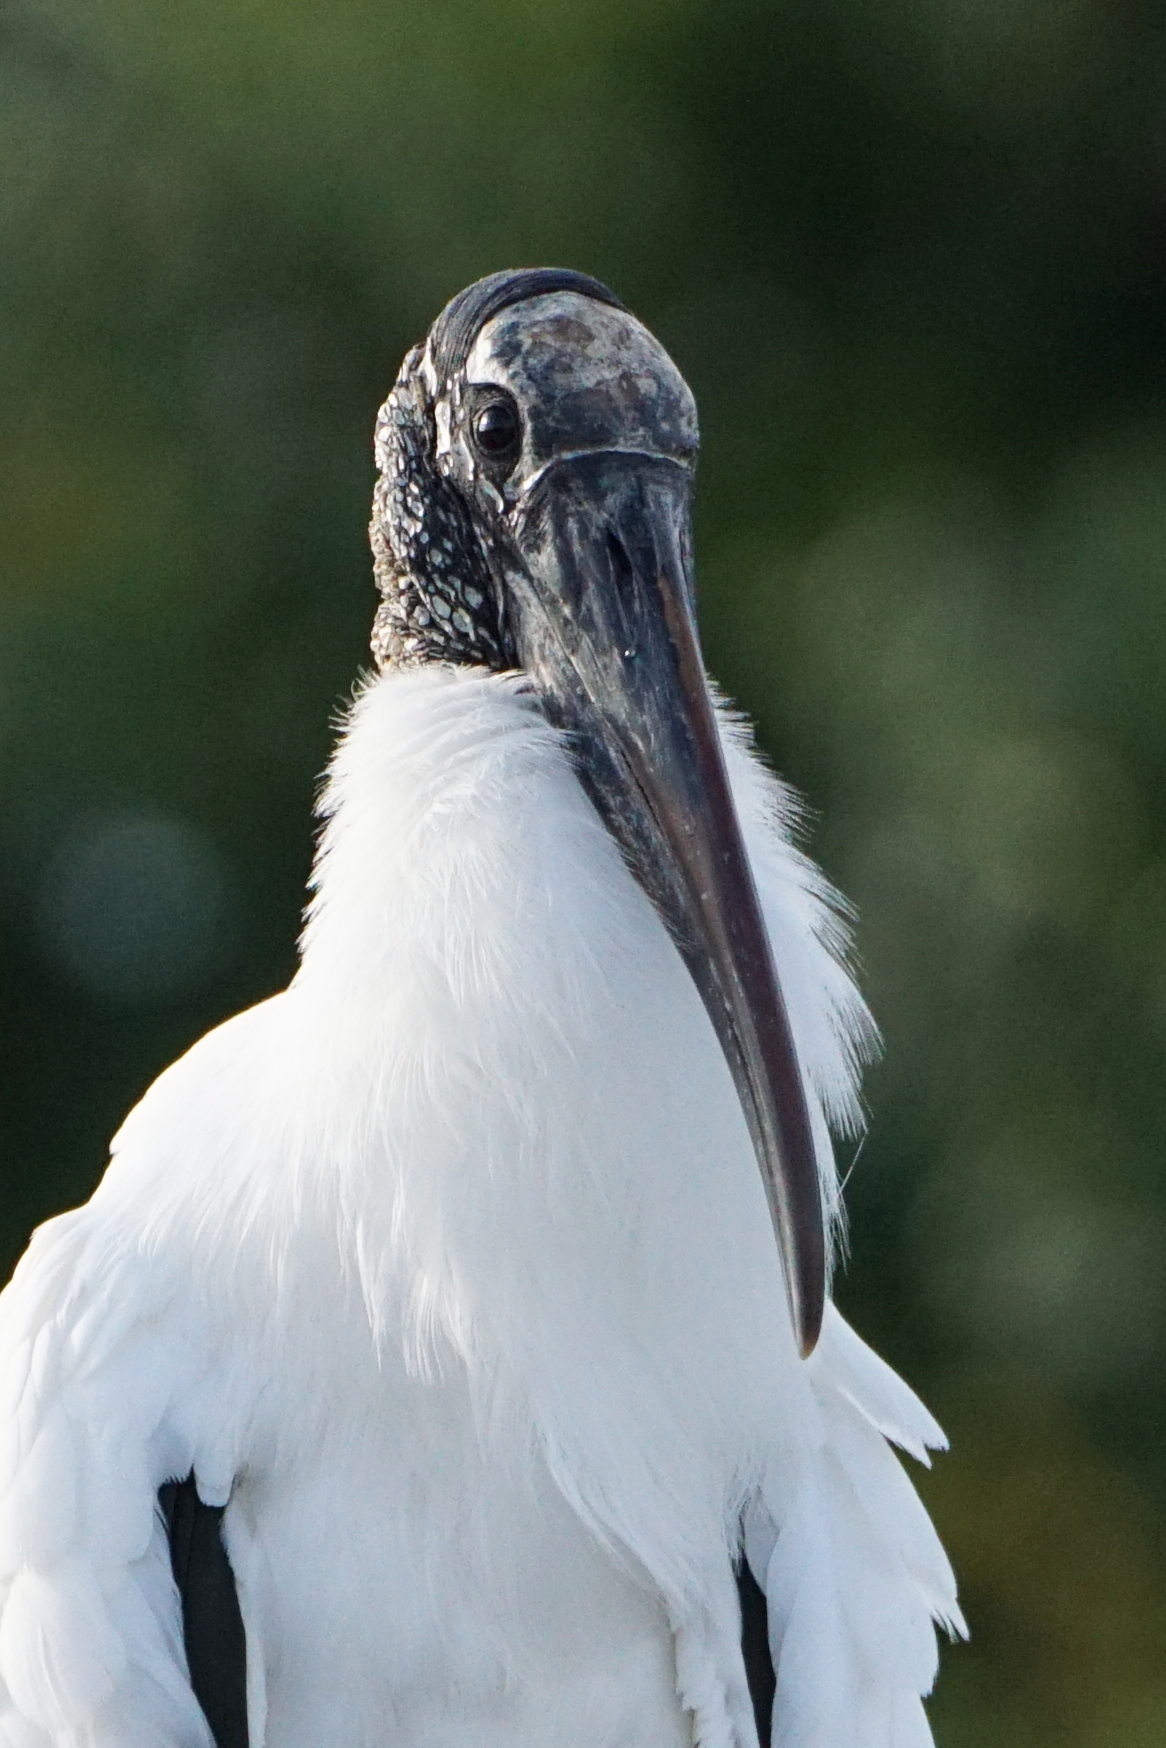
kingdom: Animalia
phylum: Chordata
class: Aves
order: Ciconiiformes
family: Ciconiidae
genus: Mycteria
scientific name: Mycteria americana
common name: Wood stork
